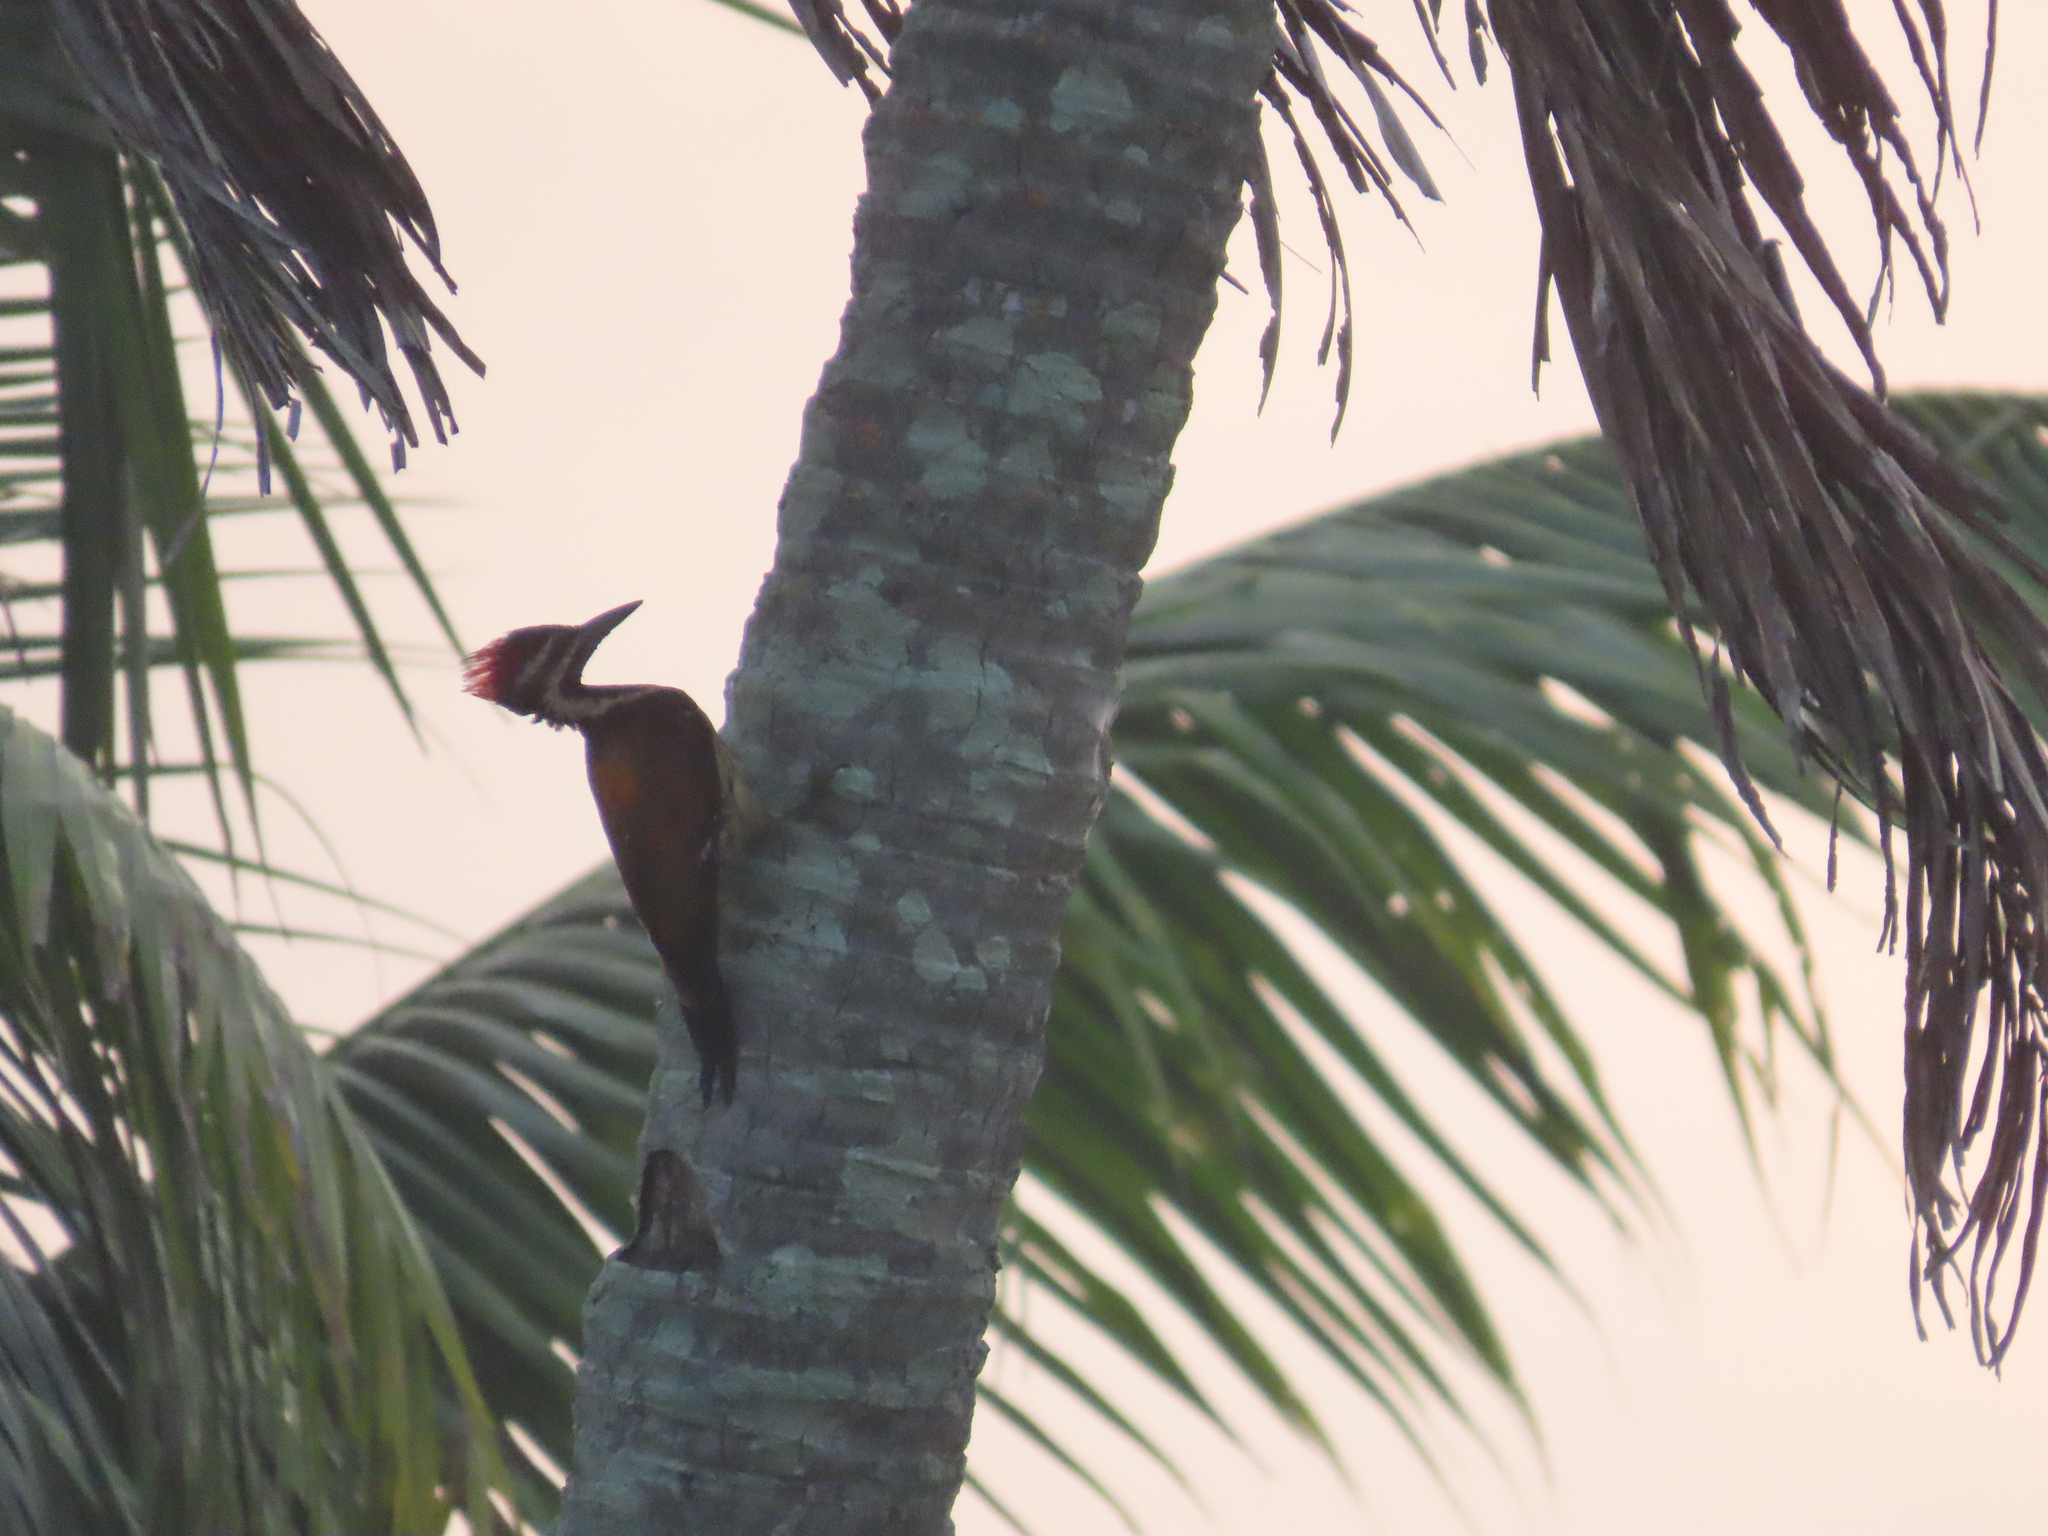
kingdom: Animalia
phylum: Chordata
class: Aves
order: Piciformes
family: Picidae
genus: Dinopium
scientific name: Dinopium benghalense
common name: Black-rumped flameback
